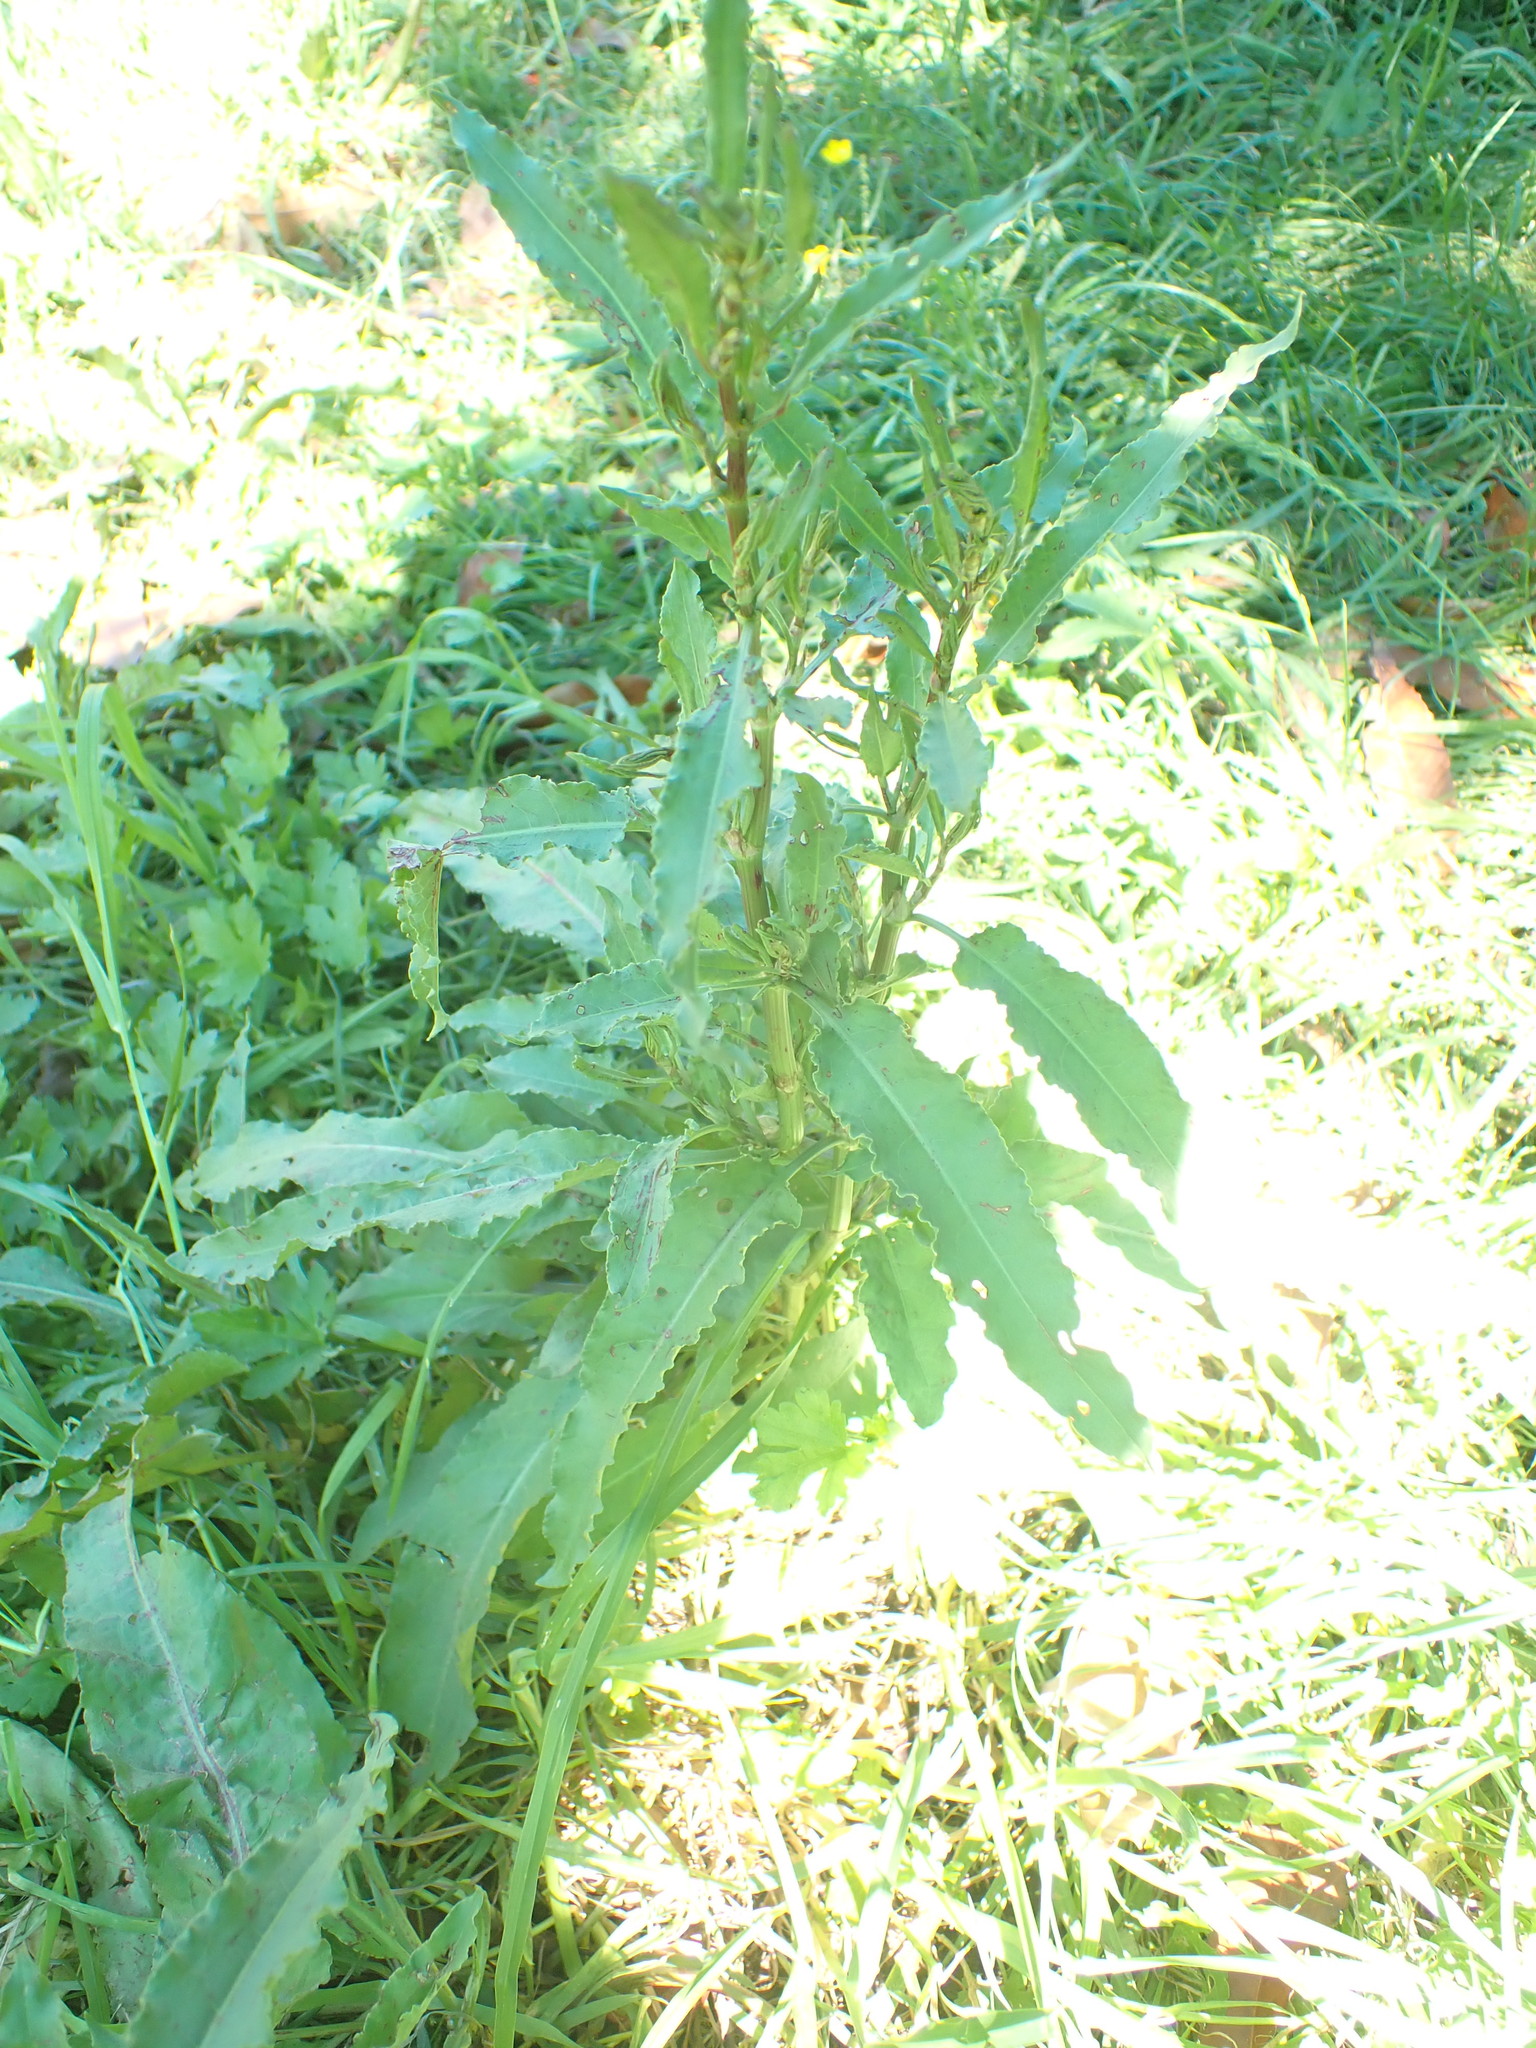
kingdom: Plantae
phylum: Tracheophyta
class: Magnoliopsida
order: Caryophyllales
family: Polygonaceae
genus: Rumex
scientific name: Rumex crispus
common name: Curled dock
